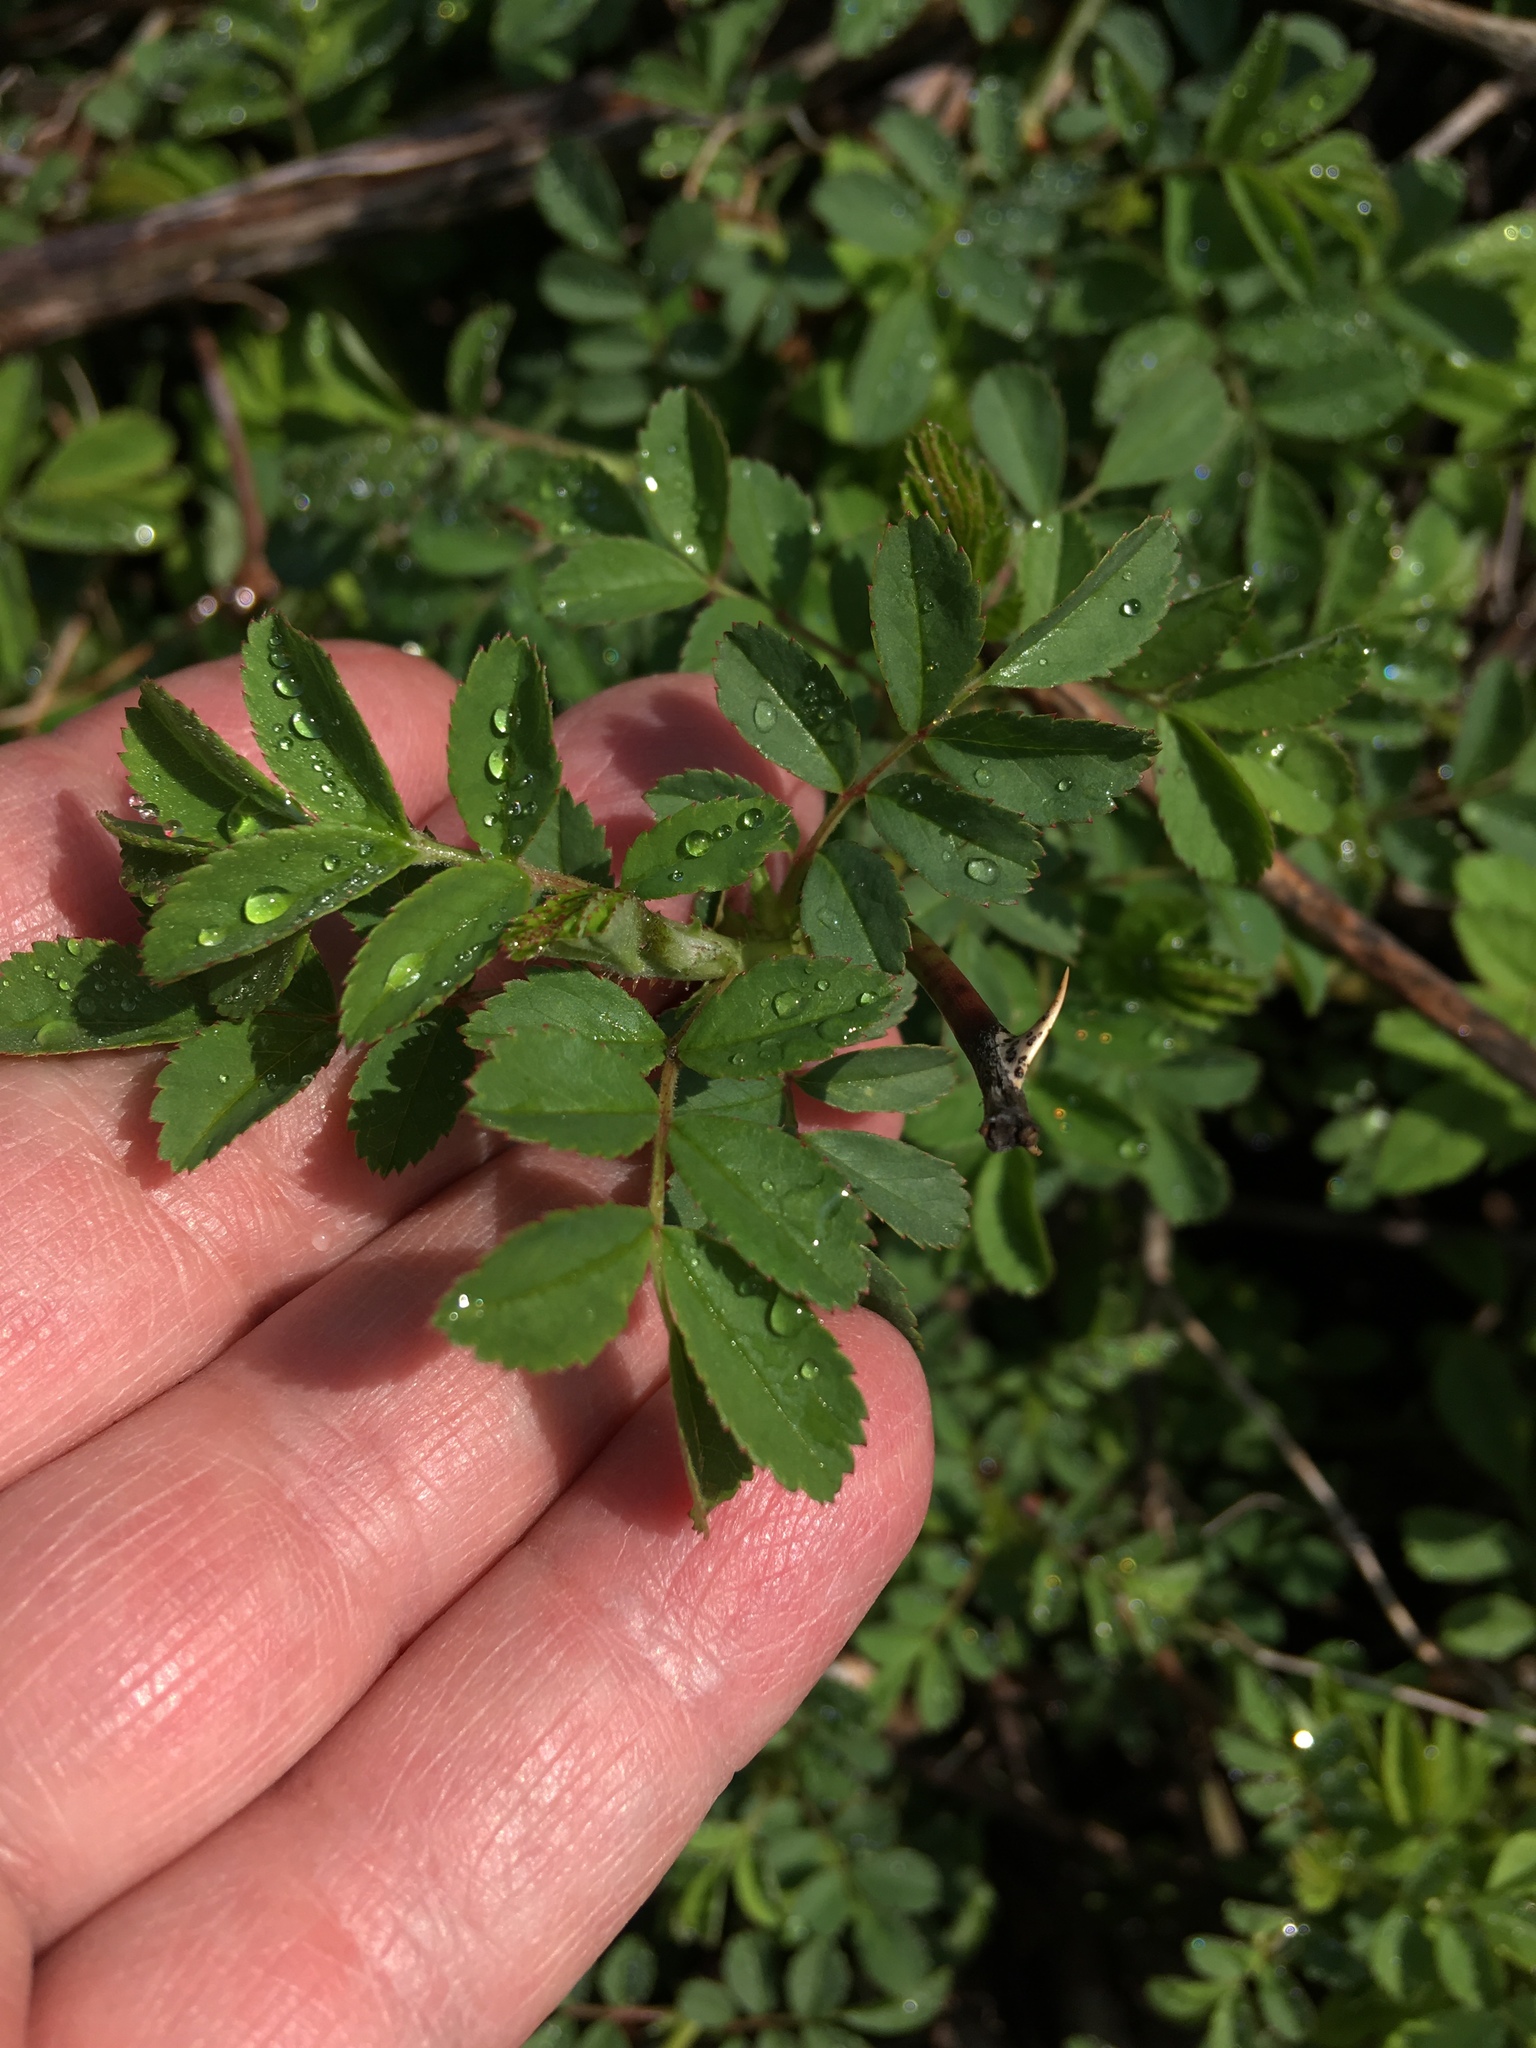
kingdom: Plantae
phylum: Tracheophyta
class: Magnoliopsida
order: Rosales
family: Rosaceae
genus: Rosa
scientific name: Rosa multiflora
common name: Multiflora rose
